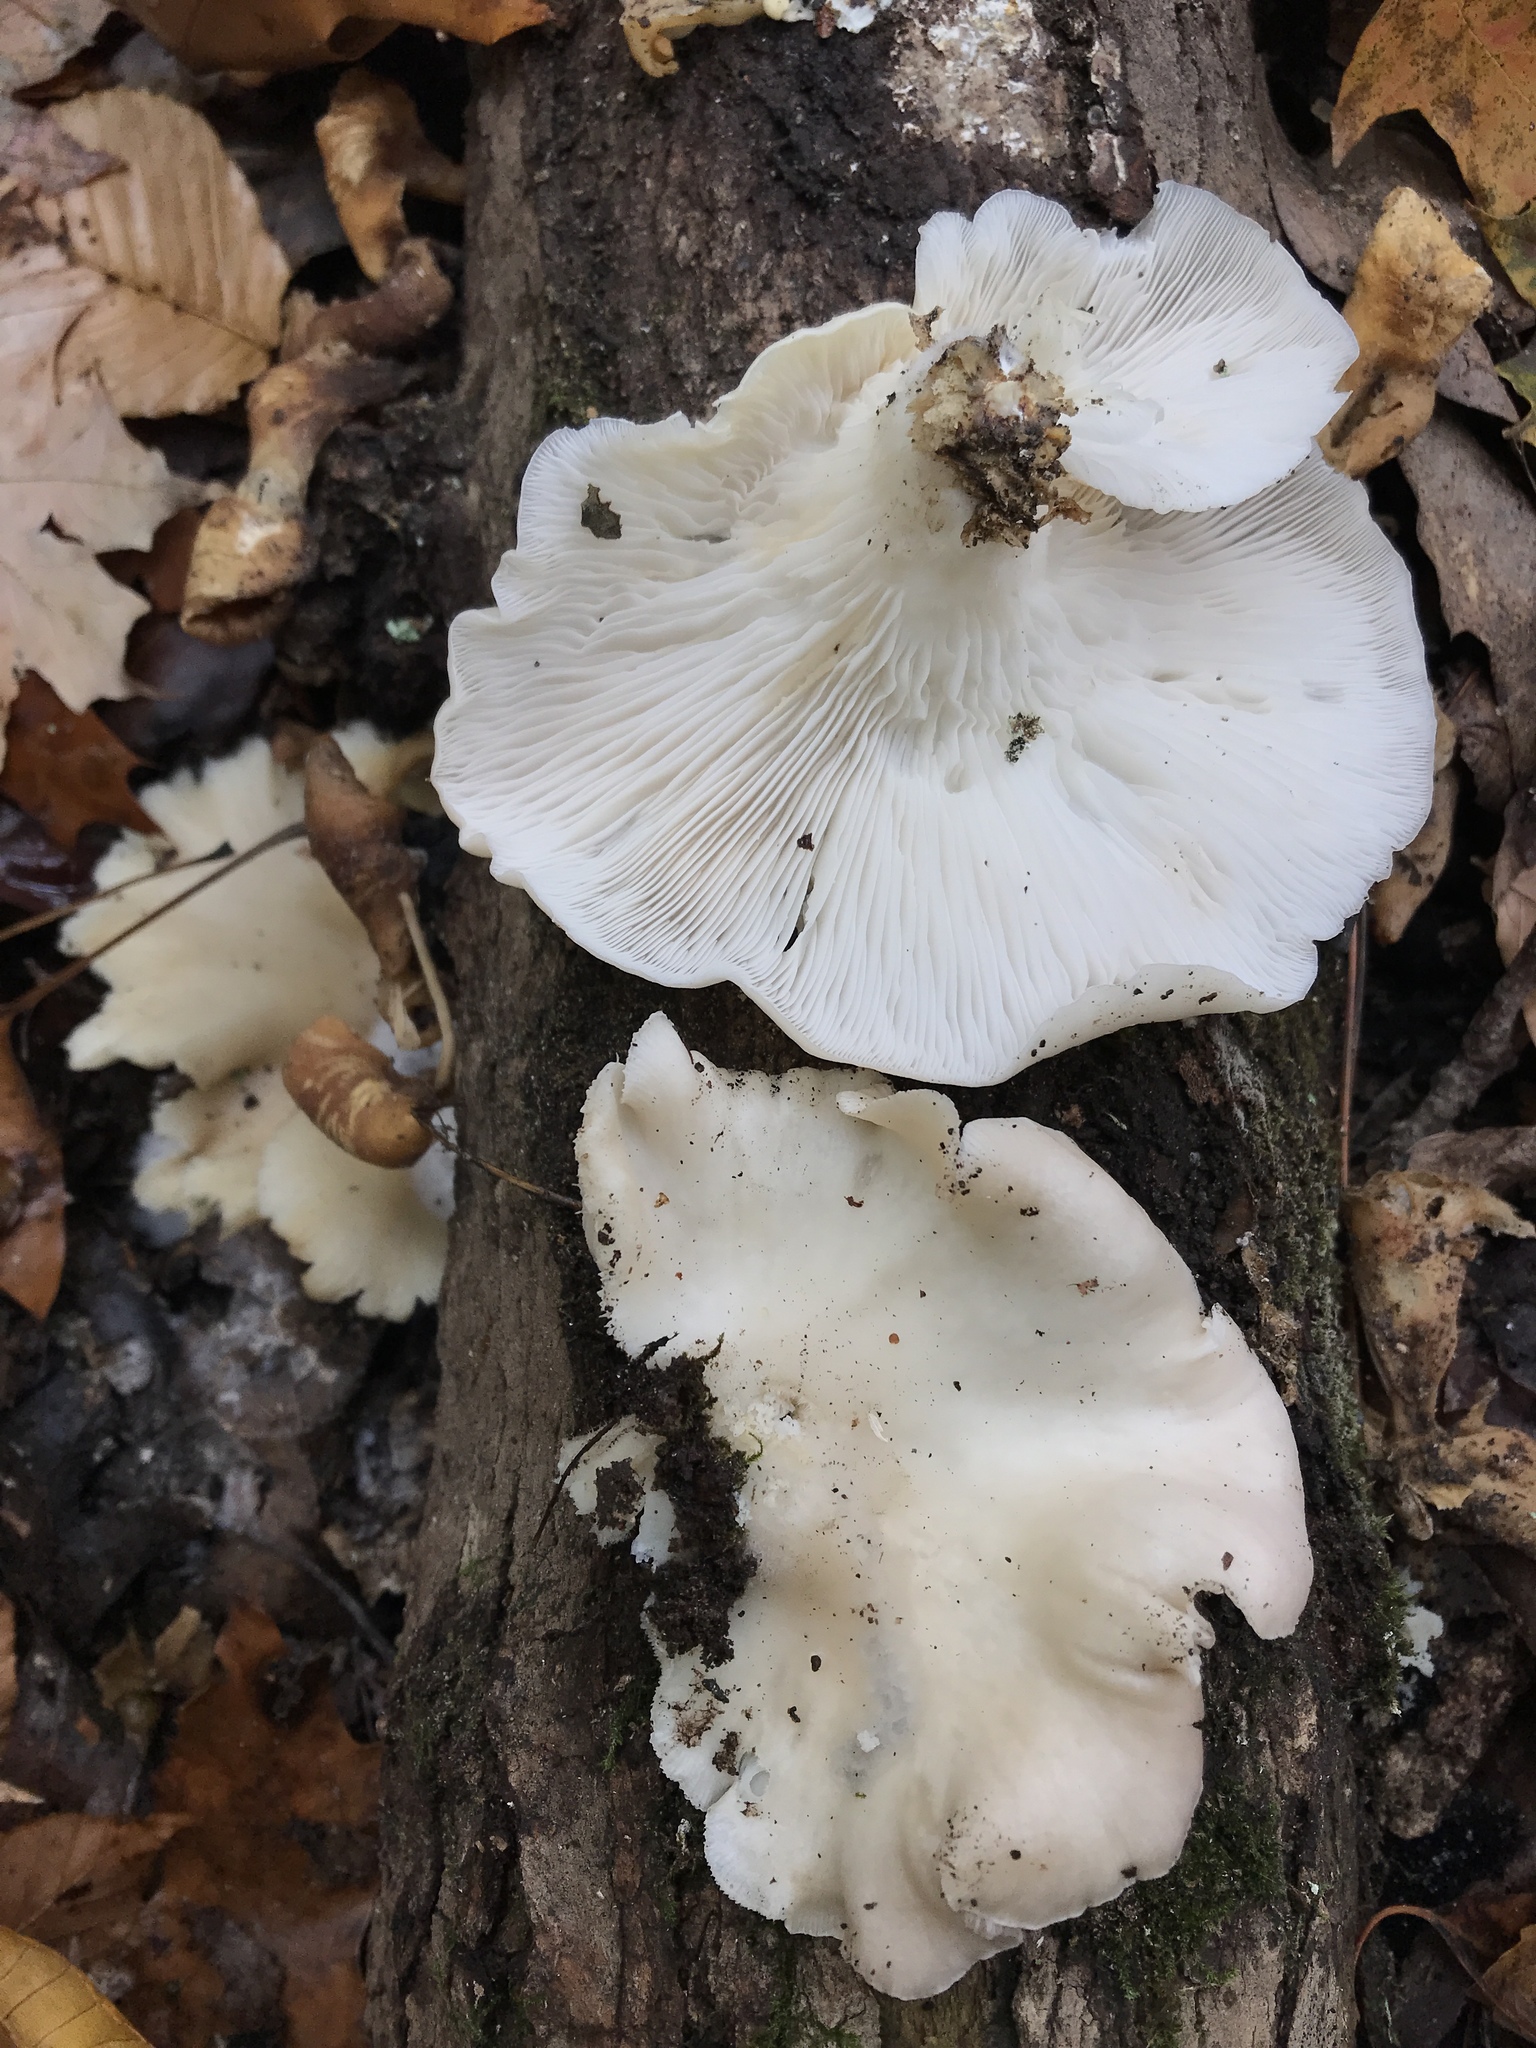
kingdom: Fungi
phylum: Basidiomycota
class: Agaricomycetes
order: Agaricales
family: Pleurotaceae
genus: Pleurotus
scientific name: Pleurotus pulmonarius
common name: Pale oyster
